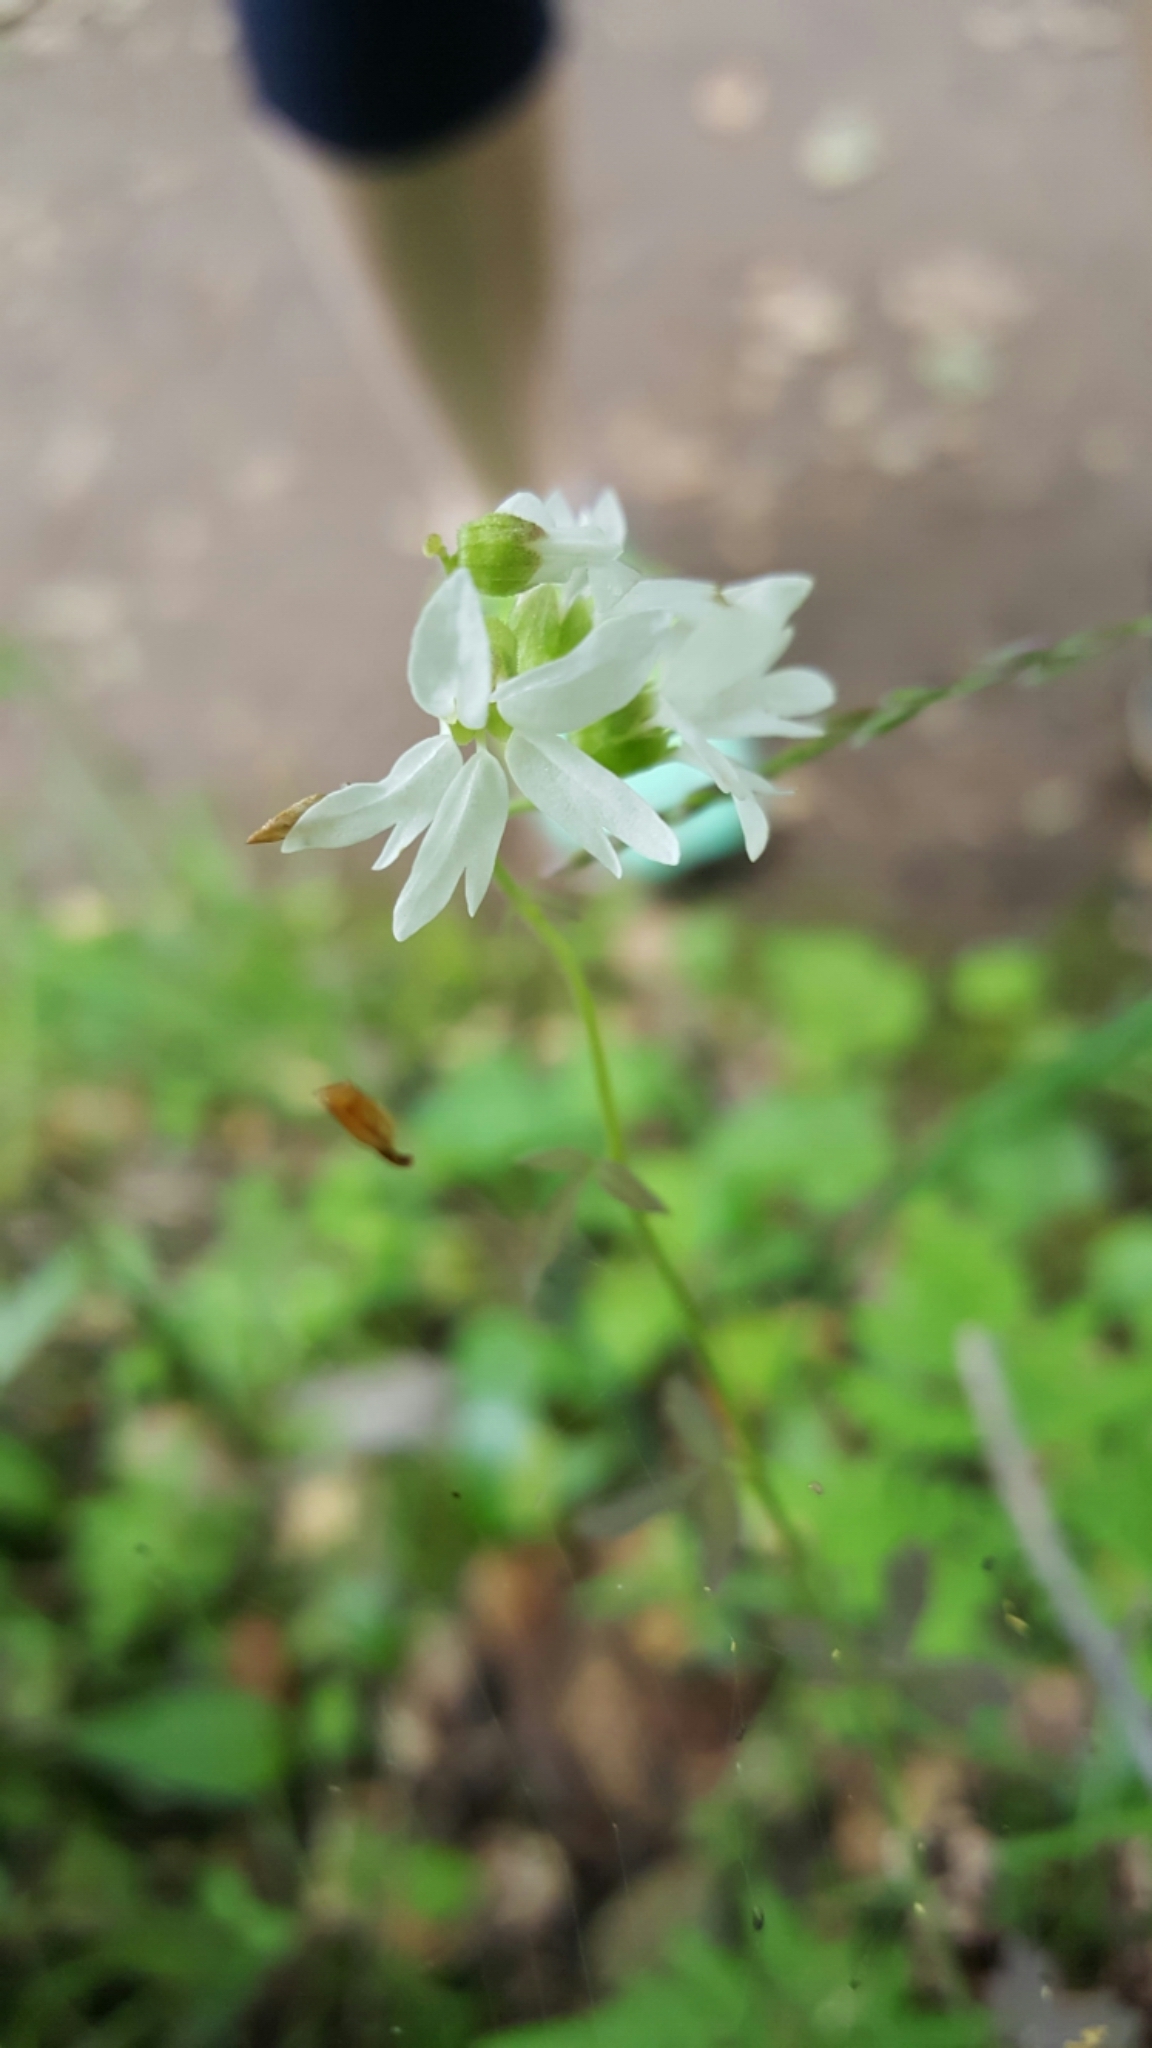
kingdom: Plantae
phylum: Tracheophyta
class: Magnoliopsida
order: Saxifragales
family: Saxifragaceae
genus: Lithophragma
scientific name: Lithophragma heterophyllum
